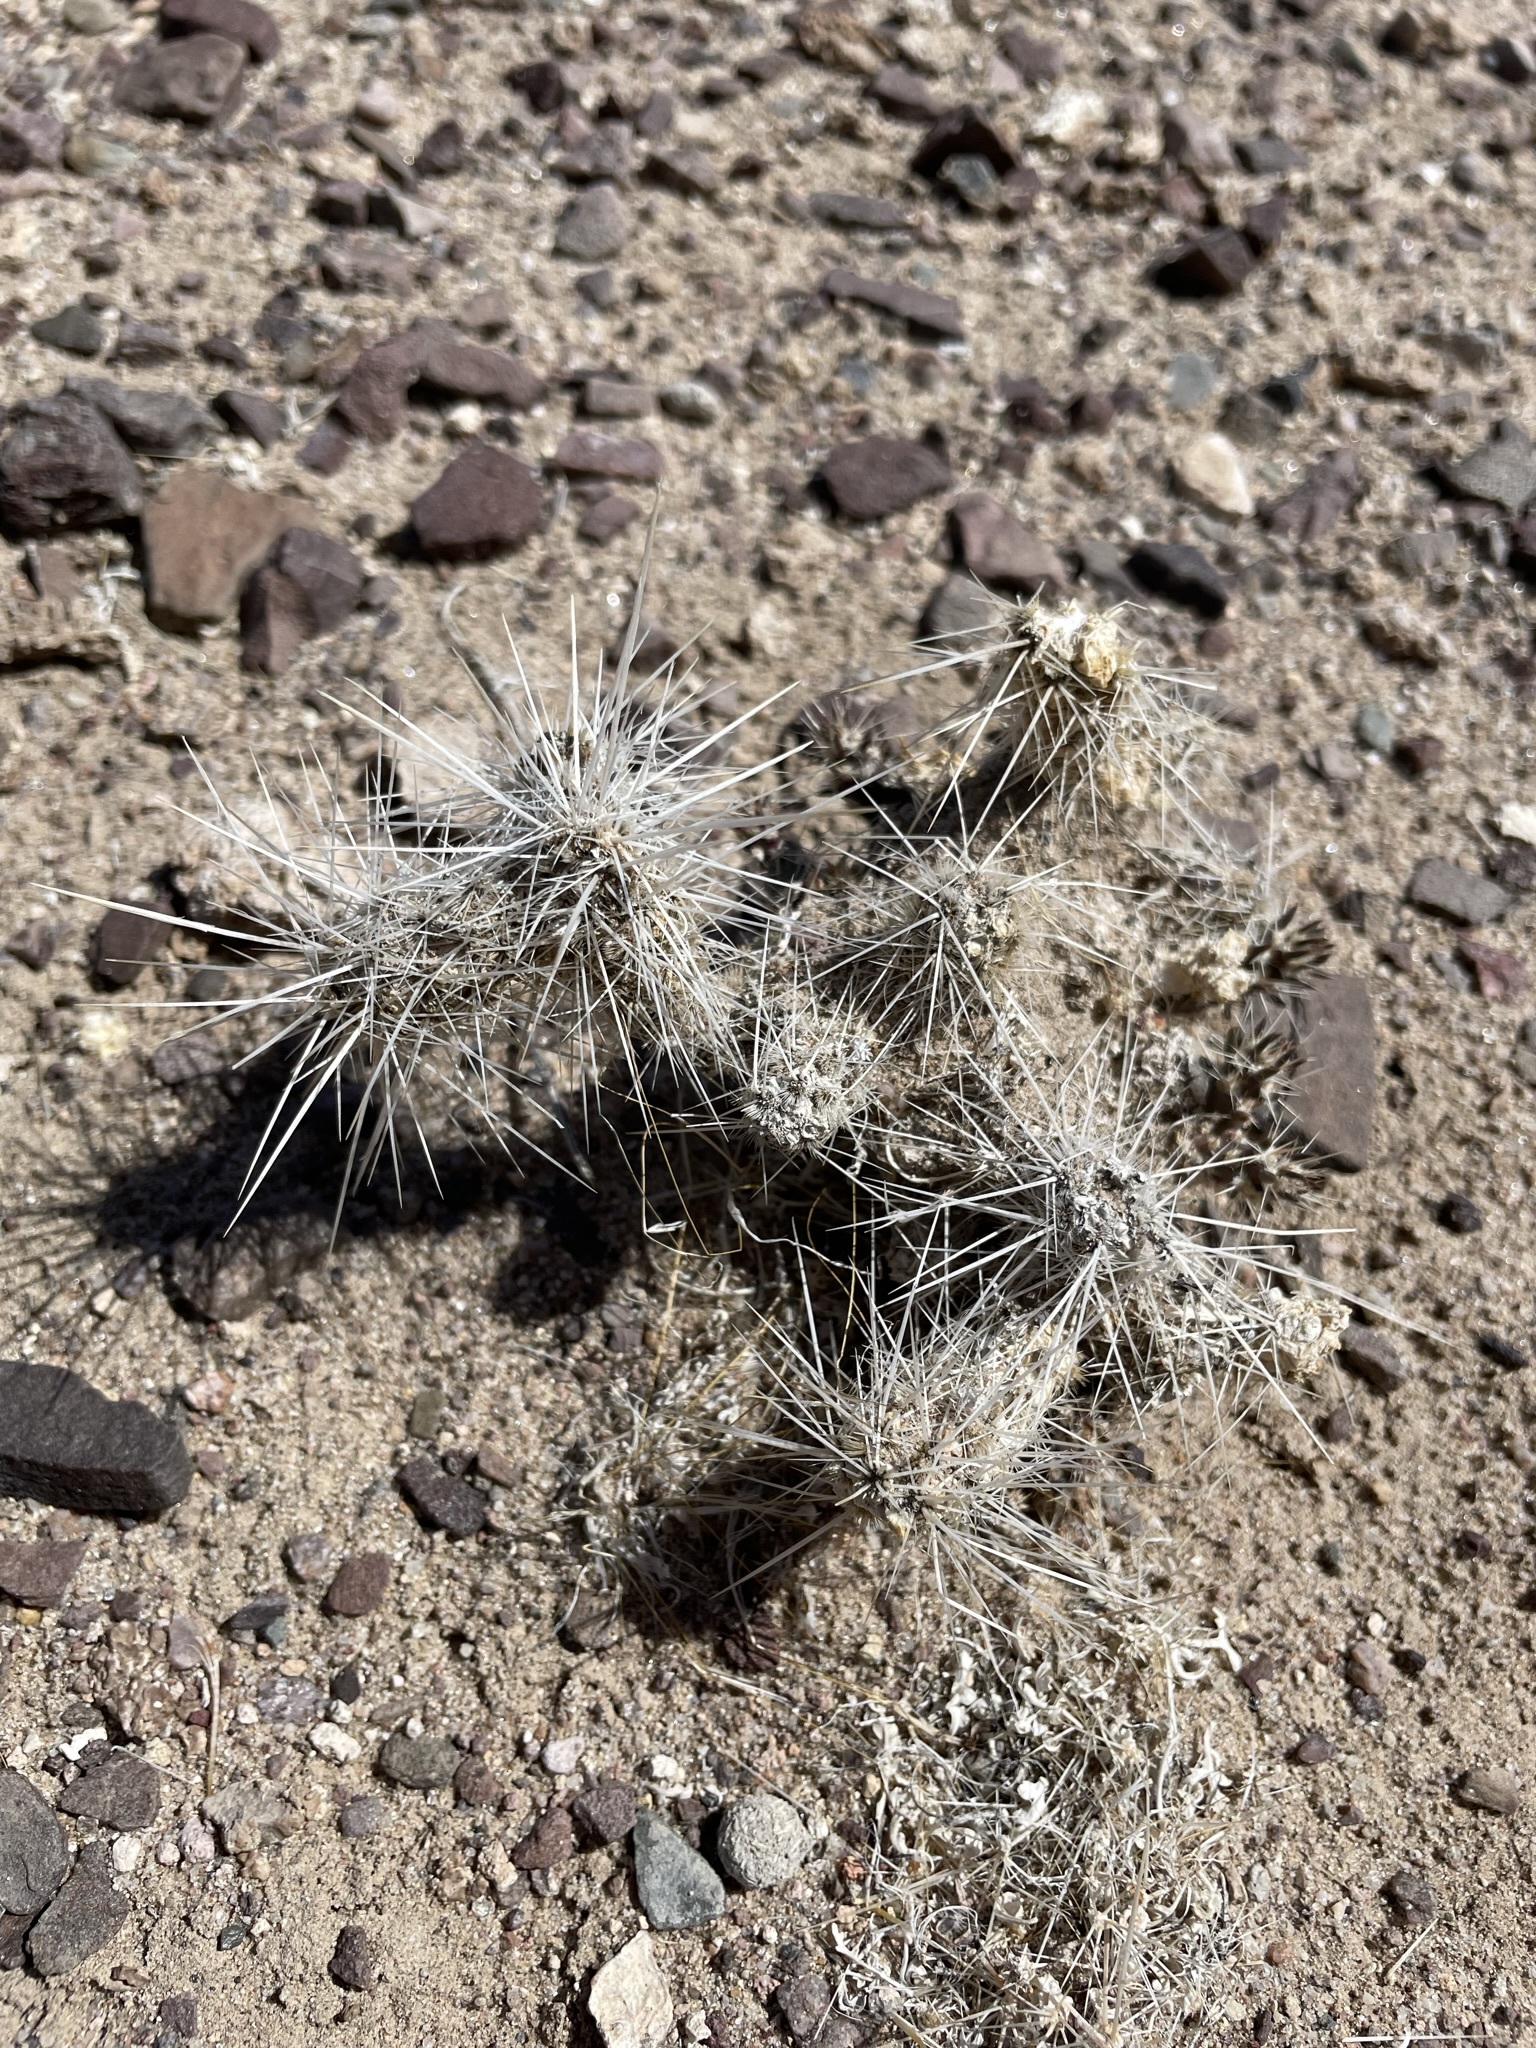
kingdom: Plantae
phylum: Tracheophyta
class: Magnoliopsida
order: Caryophyllales
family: Cactaceae
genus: Cylindropuntia
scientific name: Cylindropuntia echinocarpa
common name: Ground cholla
